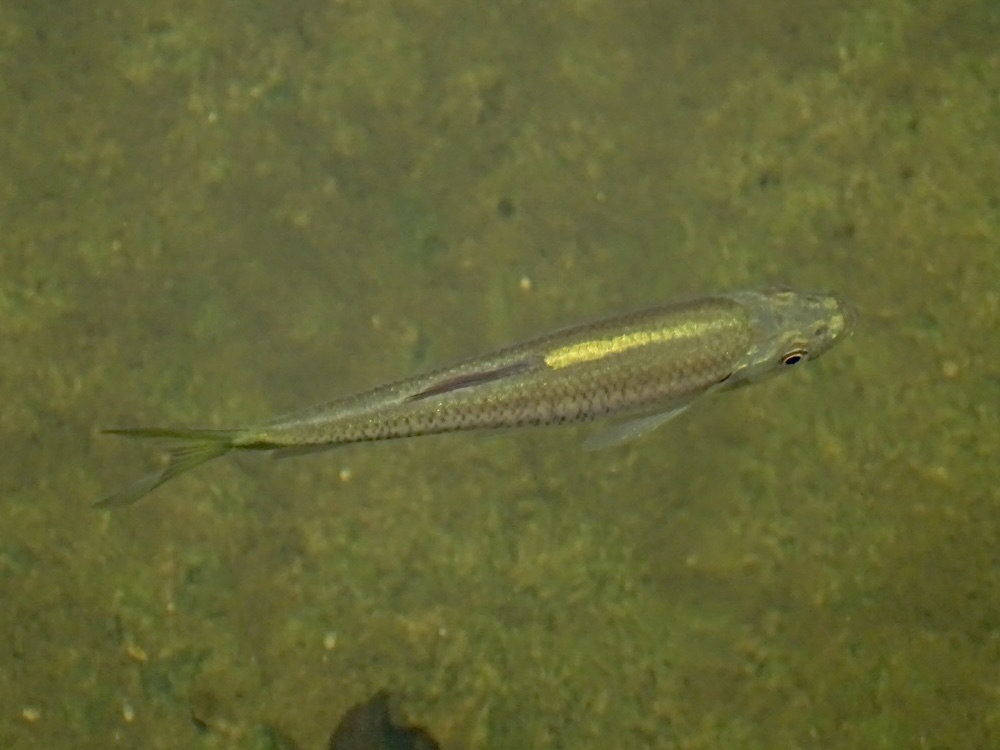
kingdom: Animalia
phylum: Chordata
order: Cypriniformes
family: Cyprinidae
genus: Parazacco
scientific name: Parazacco spilurus
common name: Predaceous chub
